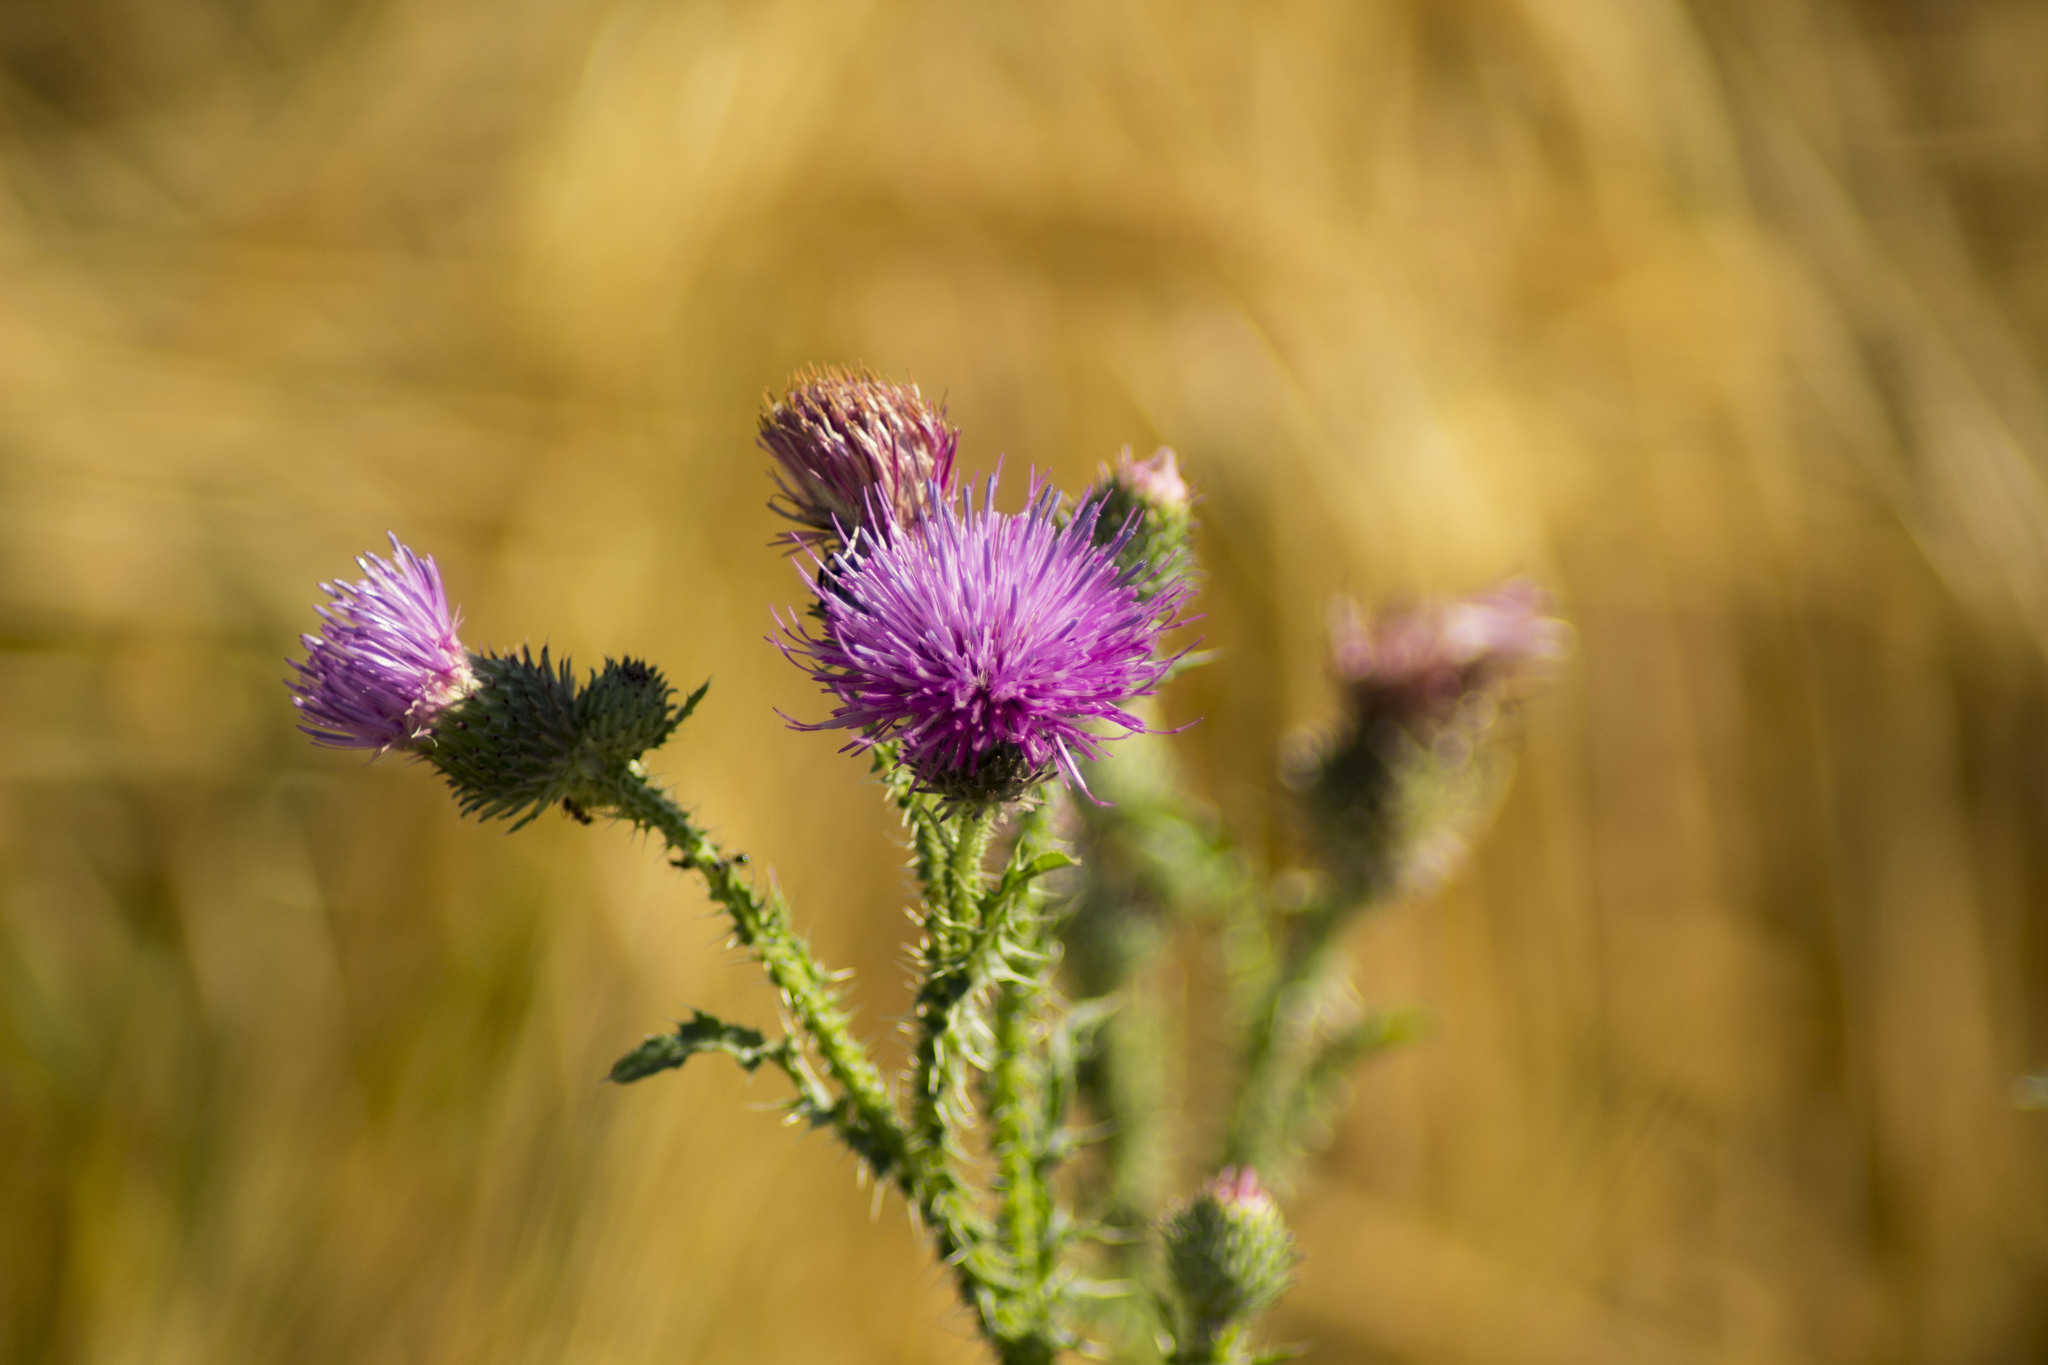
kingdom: Plantae
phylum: Tracheophyta
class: Magnoliopsida
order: Asterales
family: Asteraceae
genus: Carduus
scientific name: Carduus acanthoides
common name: Plumeless thistle
